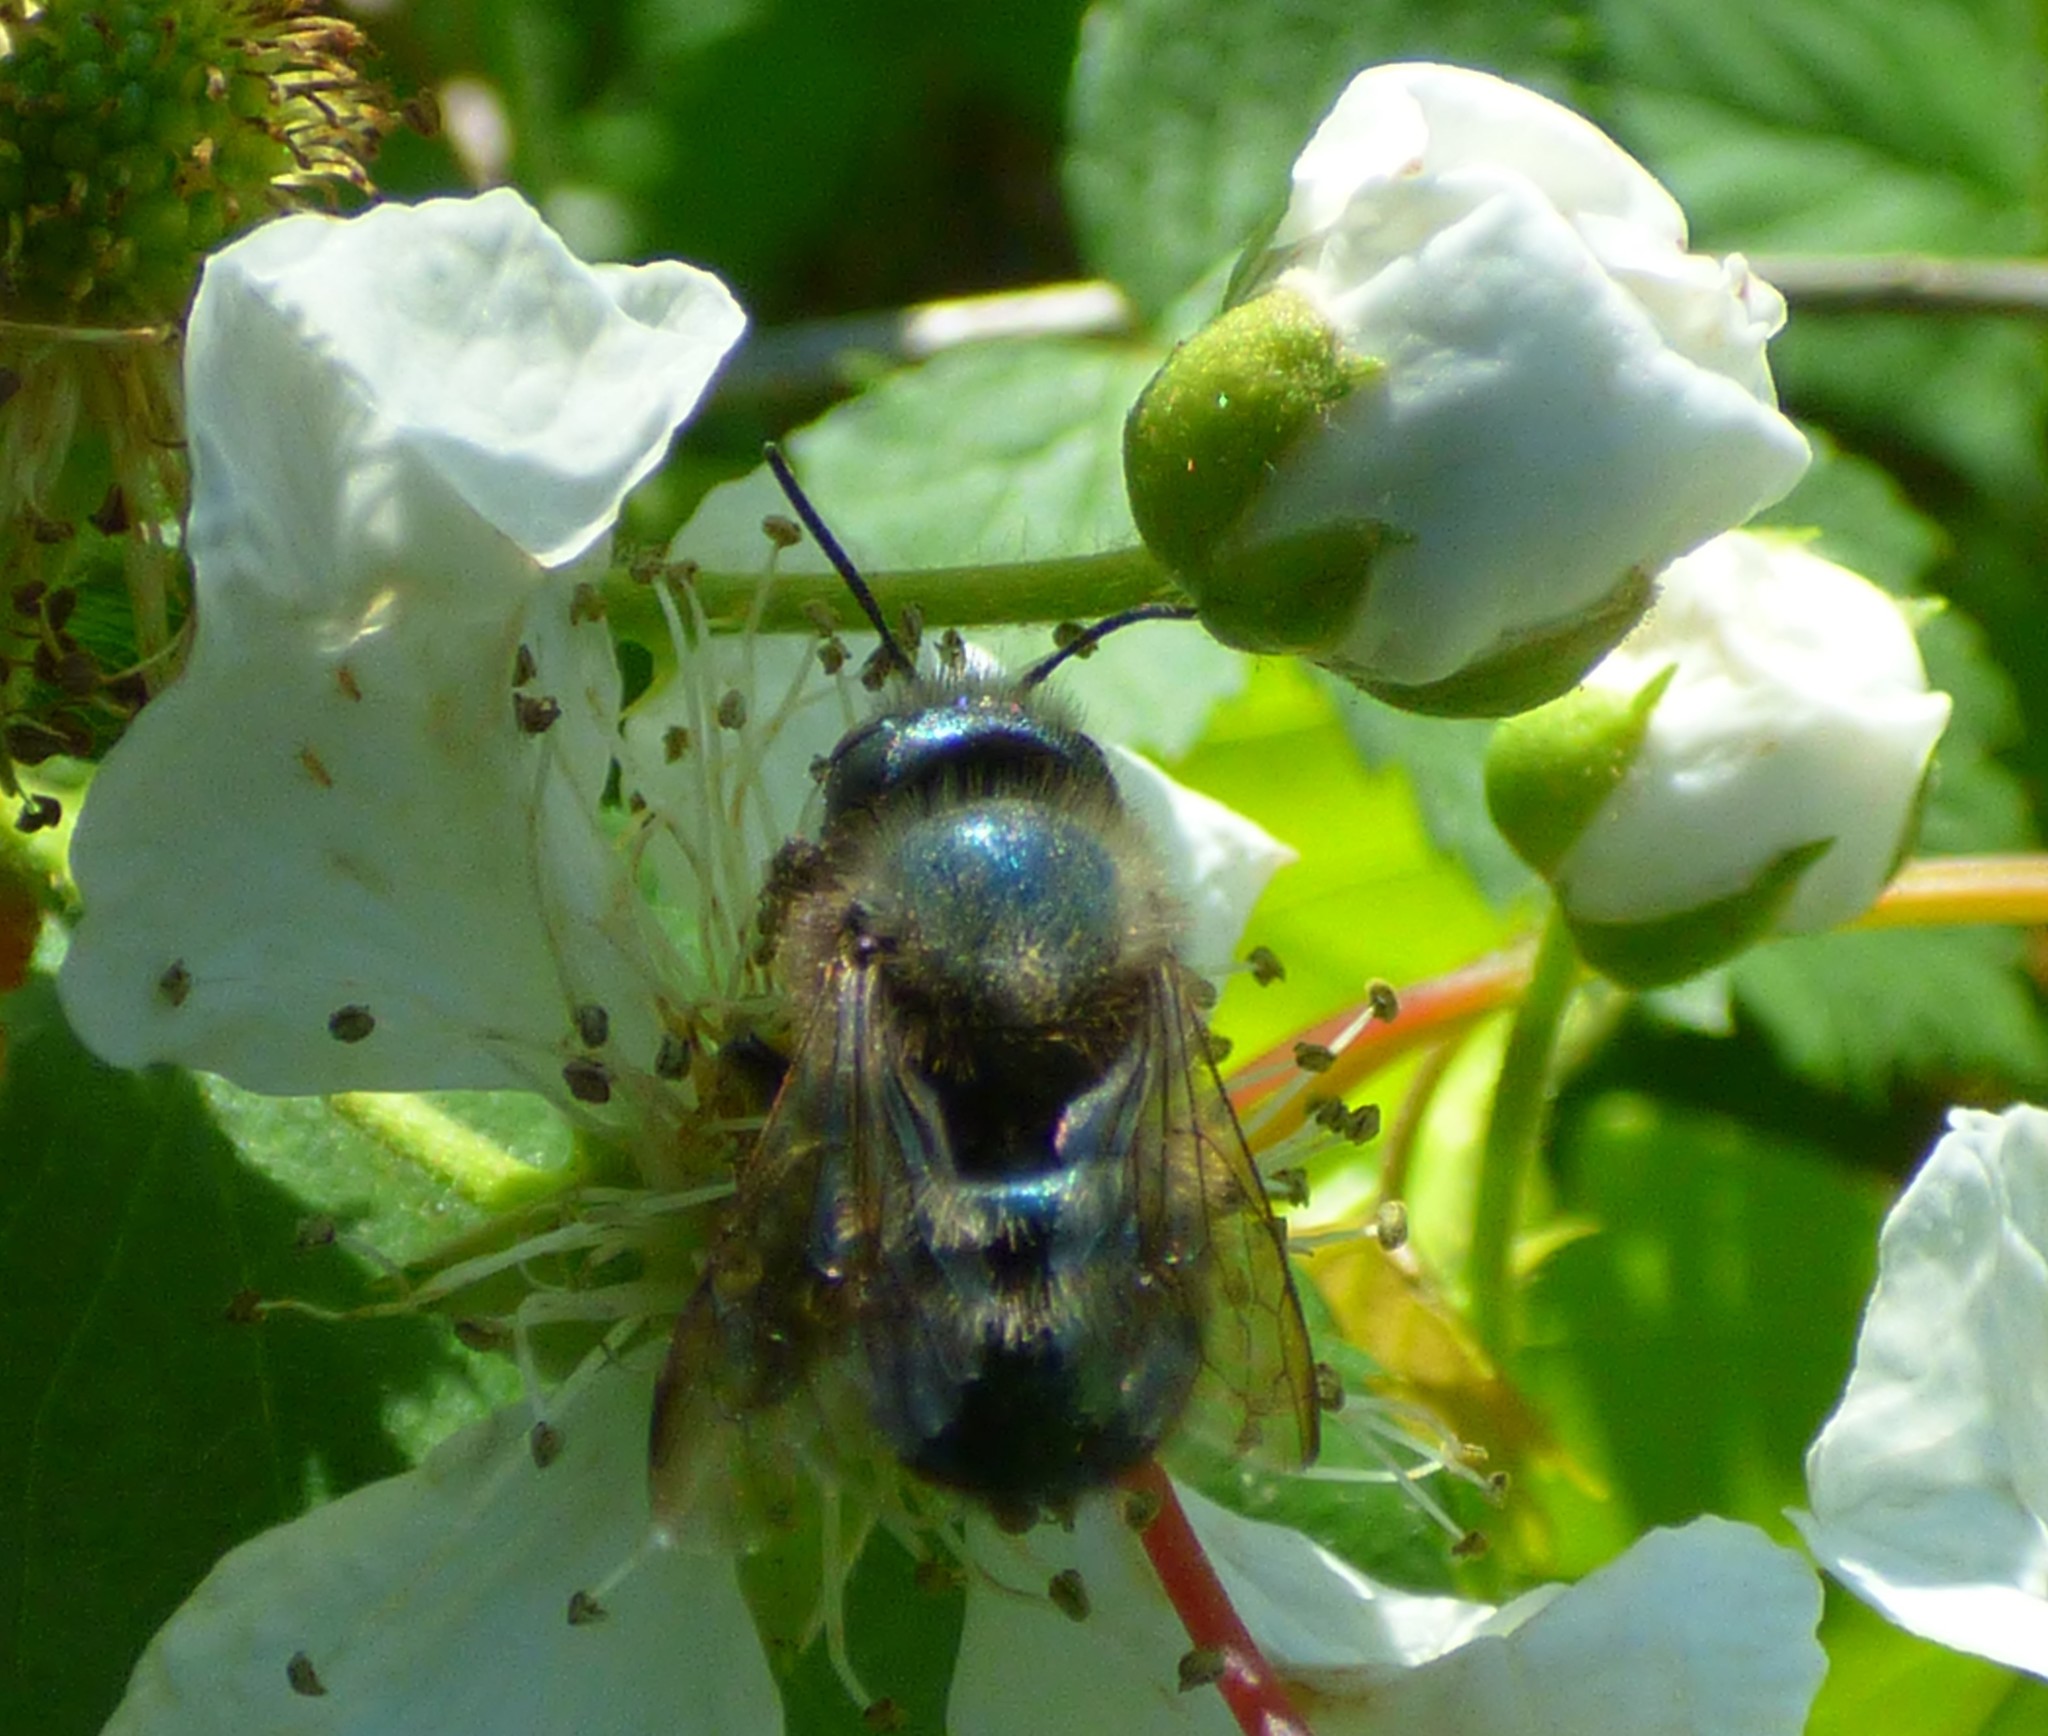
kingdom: Animalia
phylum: Arthropoda
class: Insecta
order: Hymenoptera
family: Megachilidae
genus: Osmia
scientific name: Osmia lignaria
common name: Blue orchard bee
